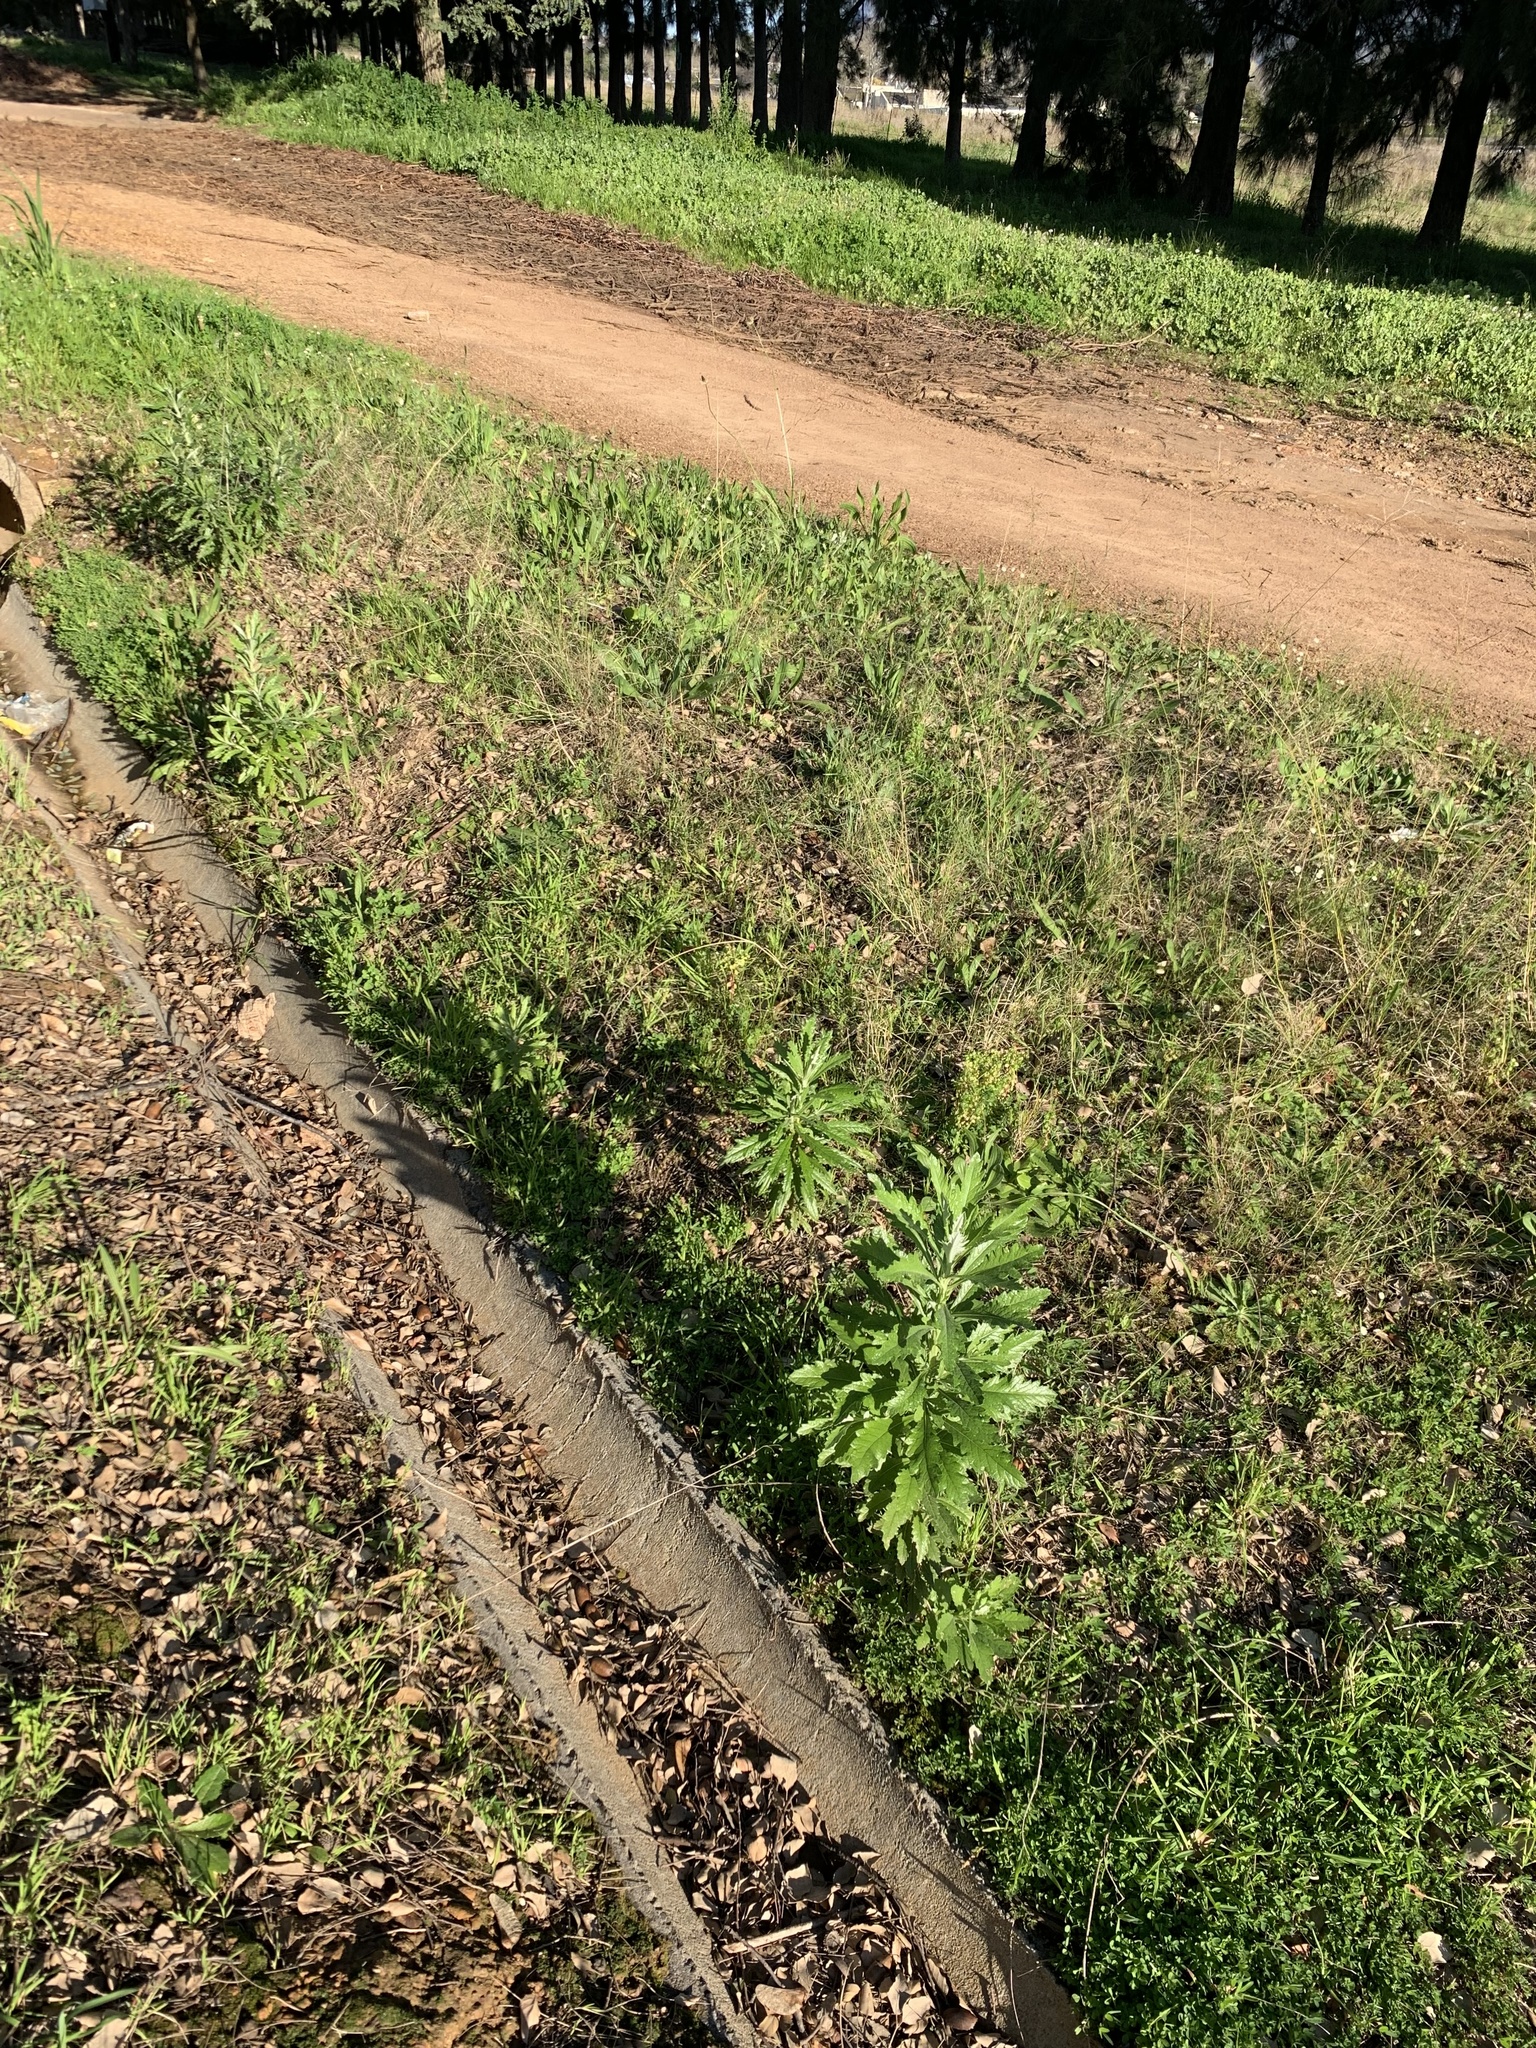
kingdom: Plantae
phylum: Tracheophyta
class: Magnoliopsida
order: Asterales
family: Asteraceae
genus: Senecio
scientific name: Senecio pterophorus
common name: Shoddy ragwort
